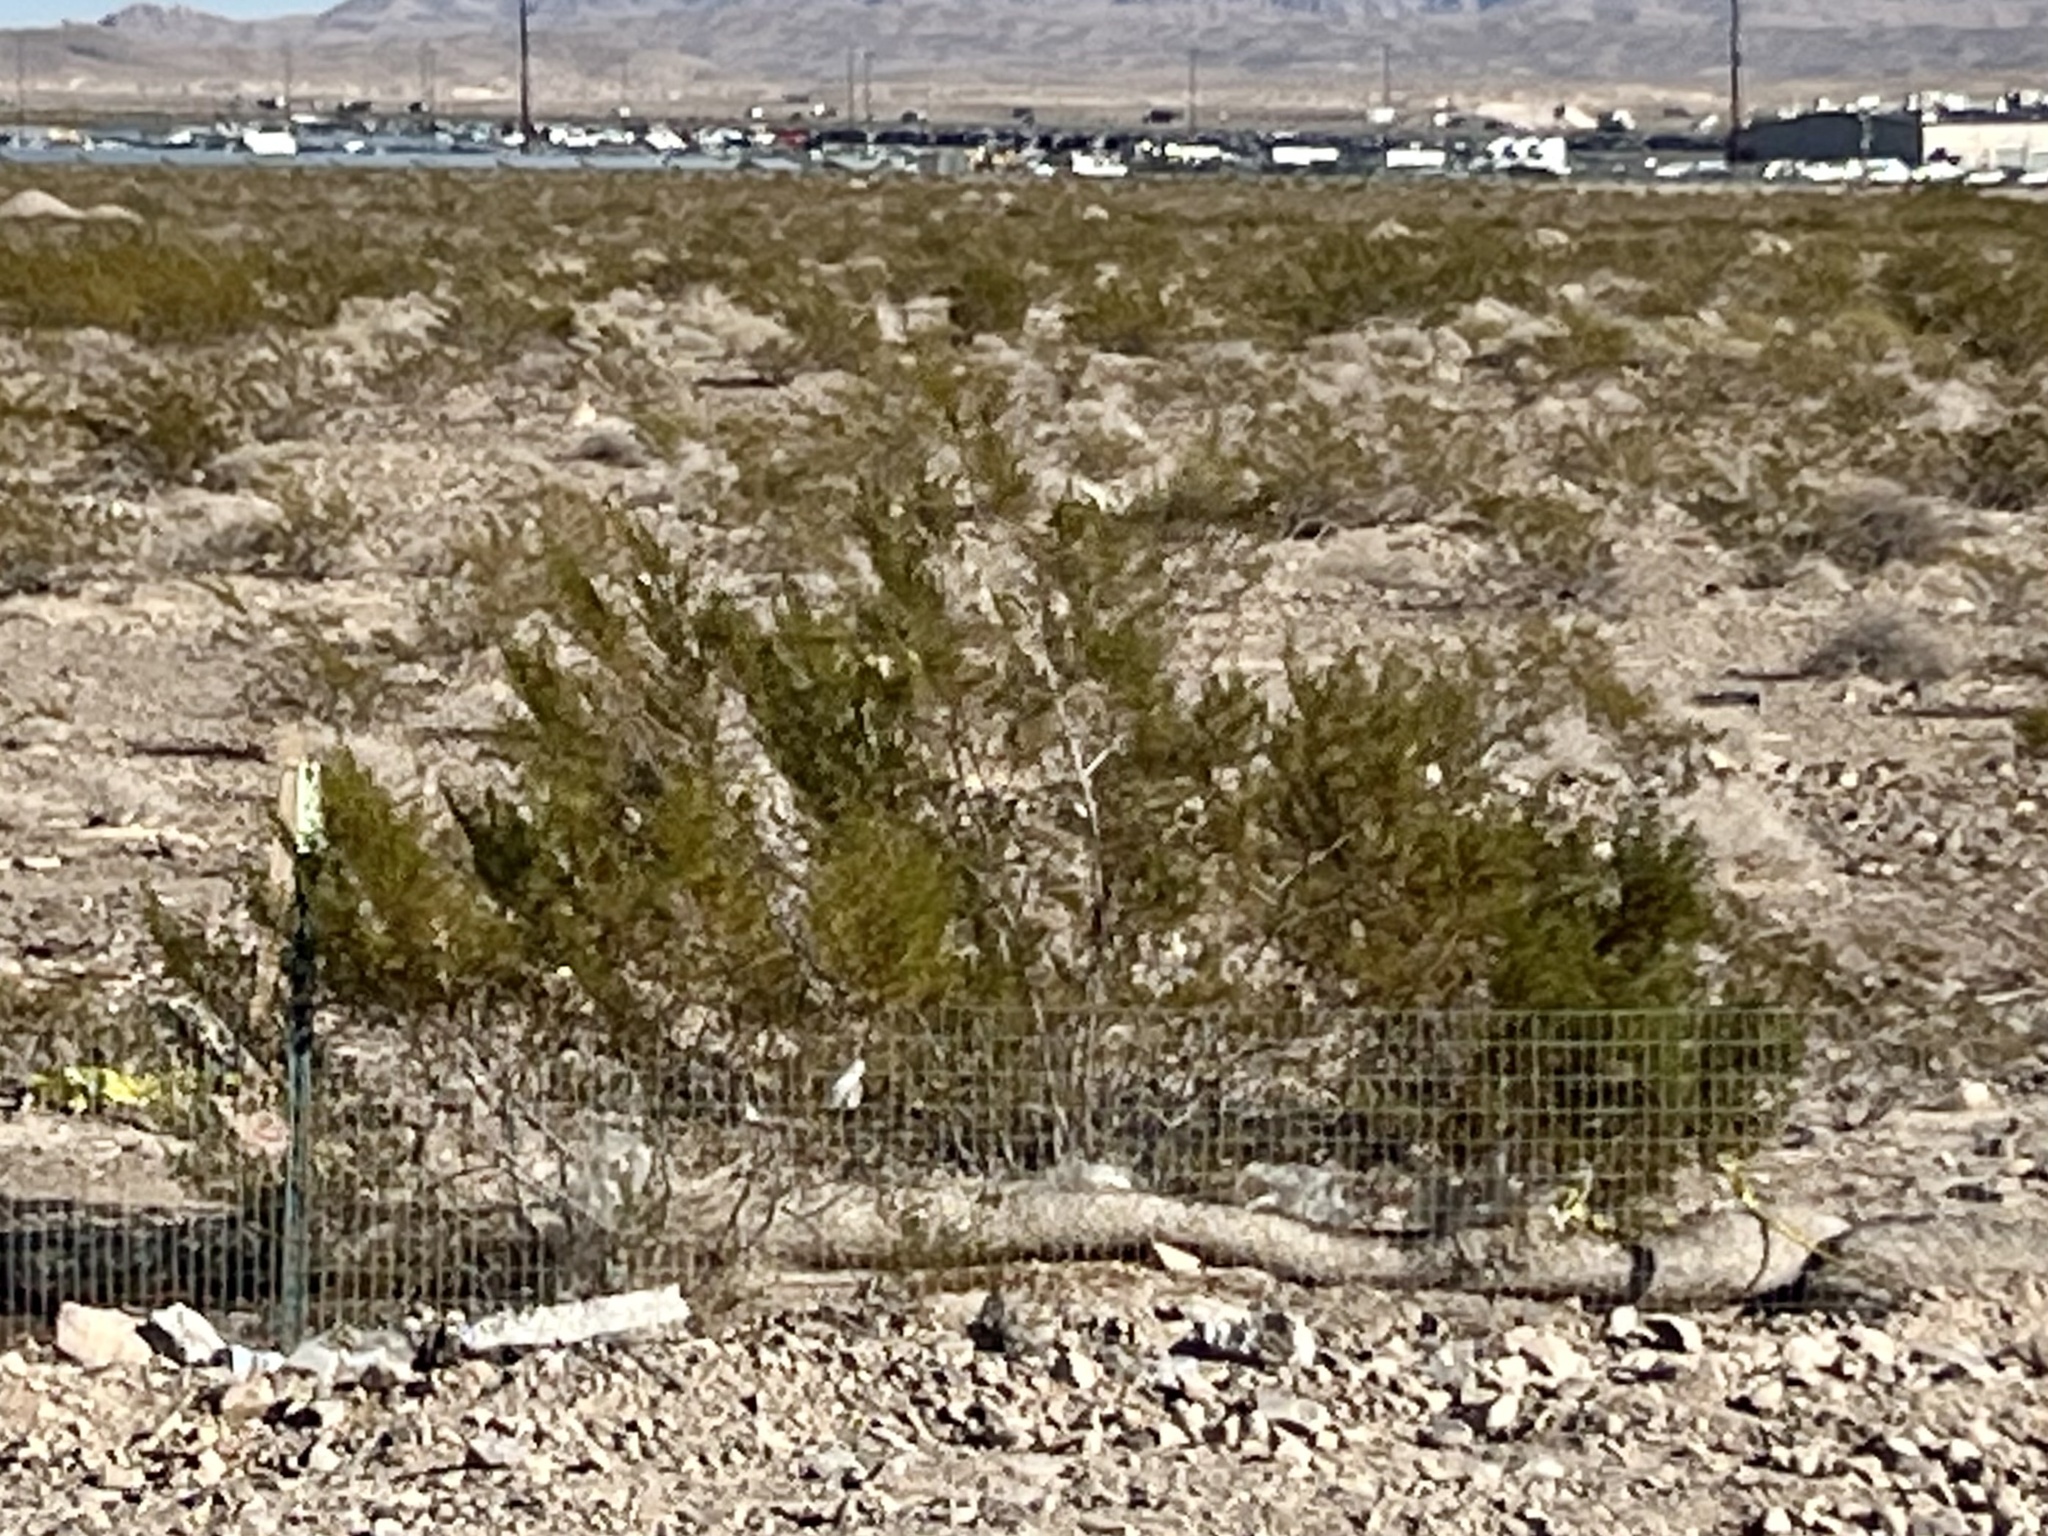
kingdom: Plantae
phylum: Tracheophyta
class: Magnoliopsida
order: Zygophyllales
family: Zygophyllaceae
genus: Larrea
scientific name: Larrea tridentata
